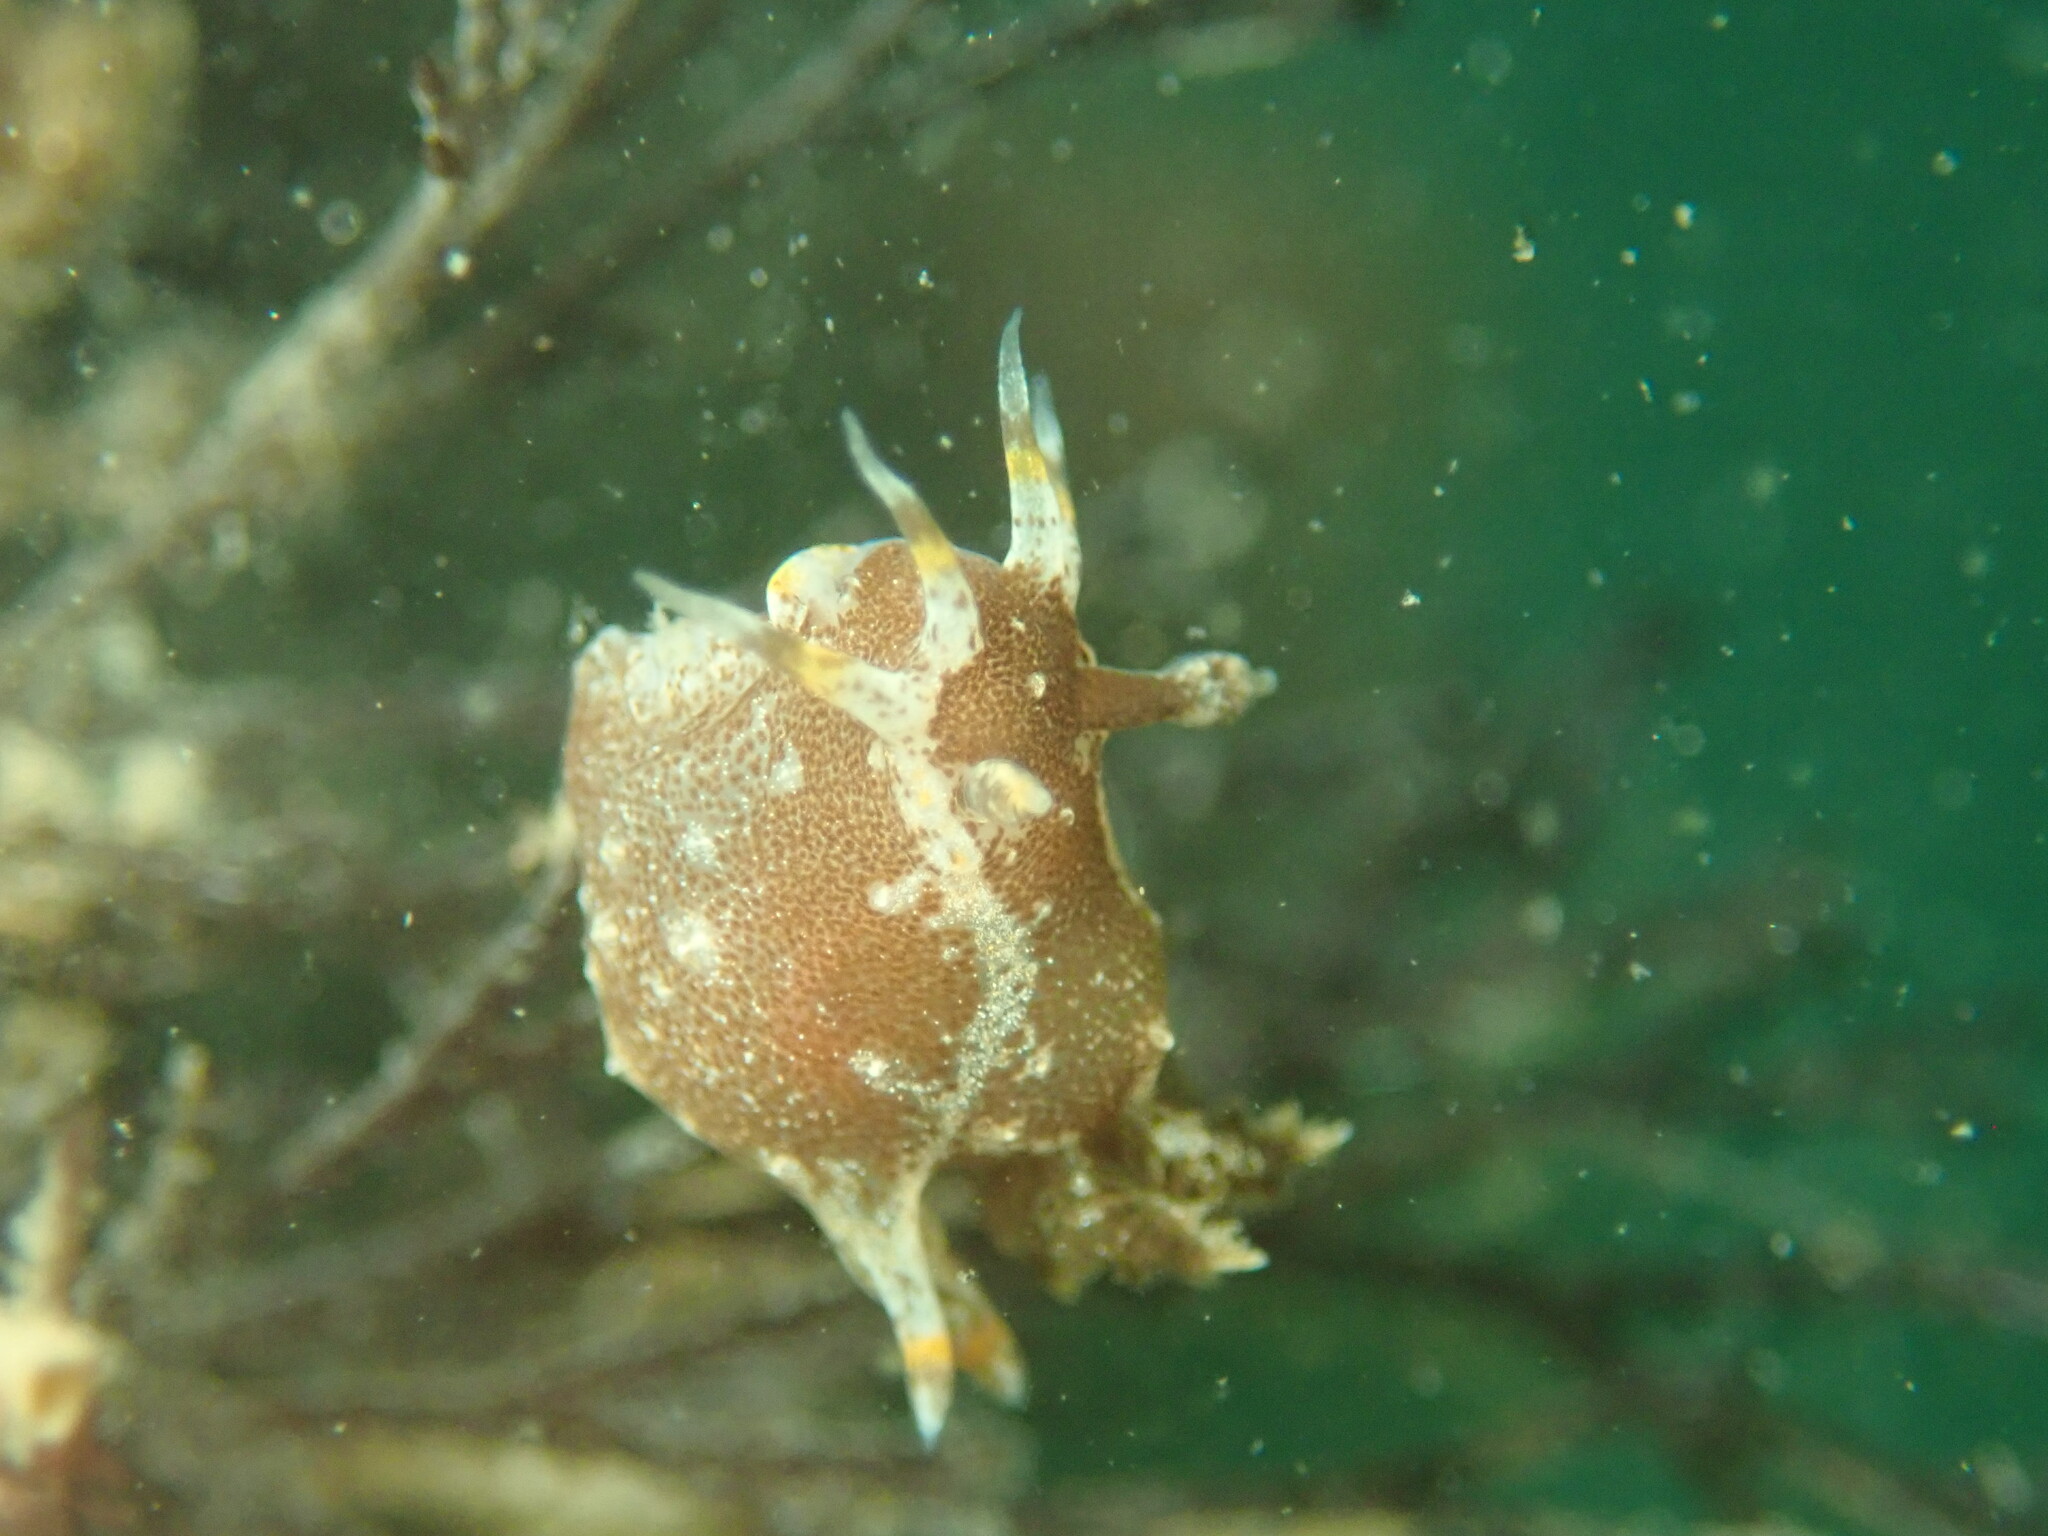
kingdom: Animalia
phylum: Mollusca
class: Gastropoda
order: Nudibranchia
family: Polyceridae
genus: Polycera
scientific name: Polycera hedgpethi
